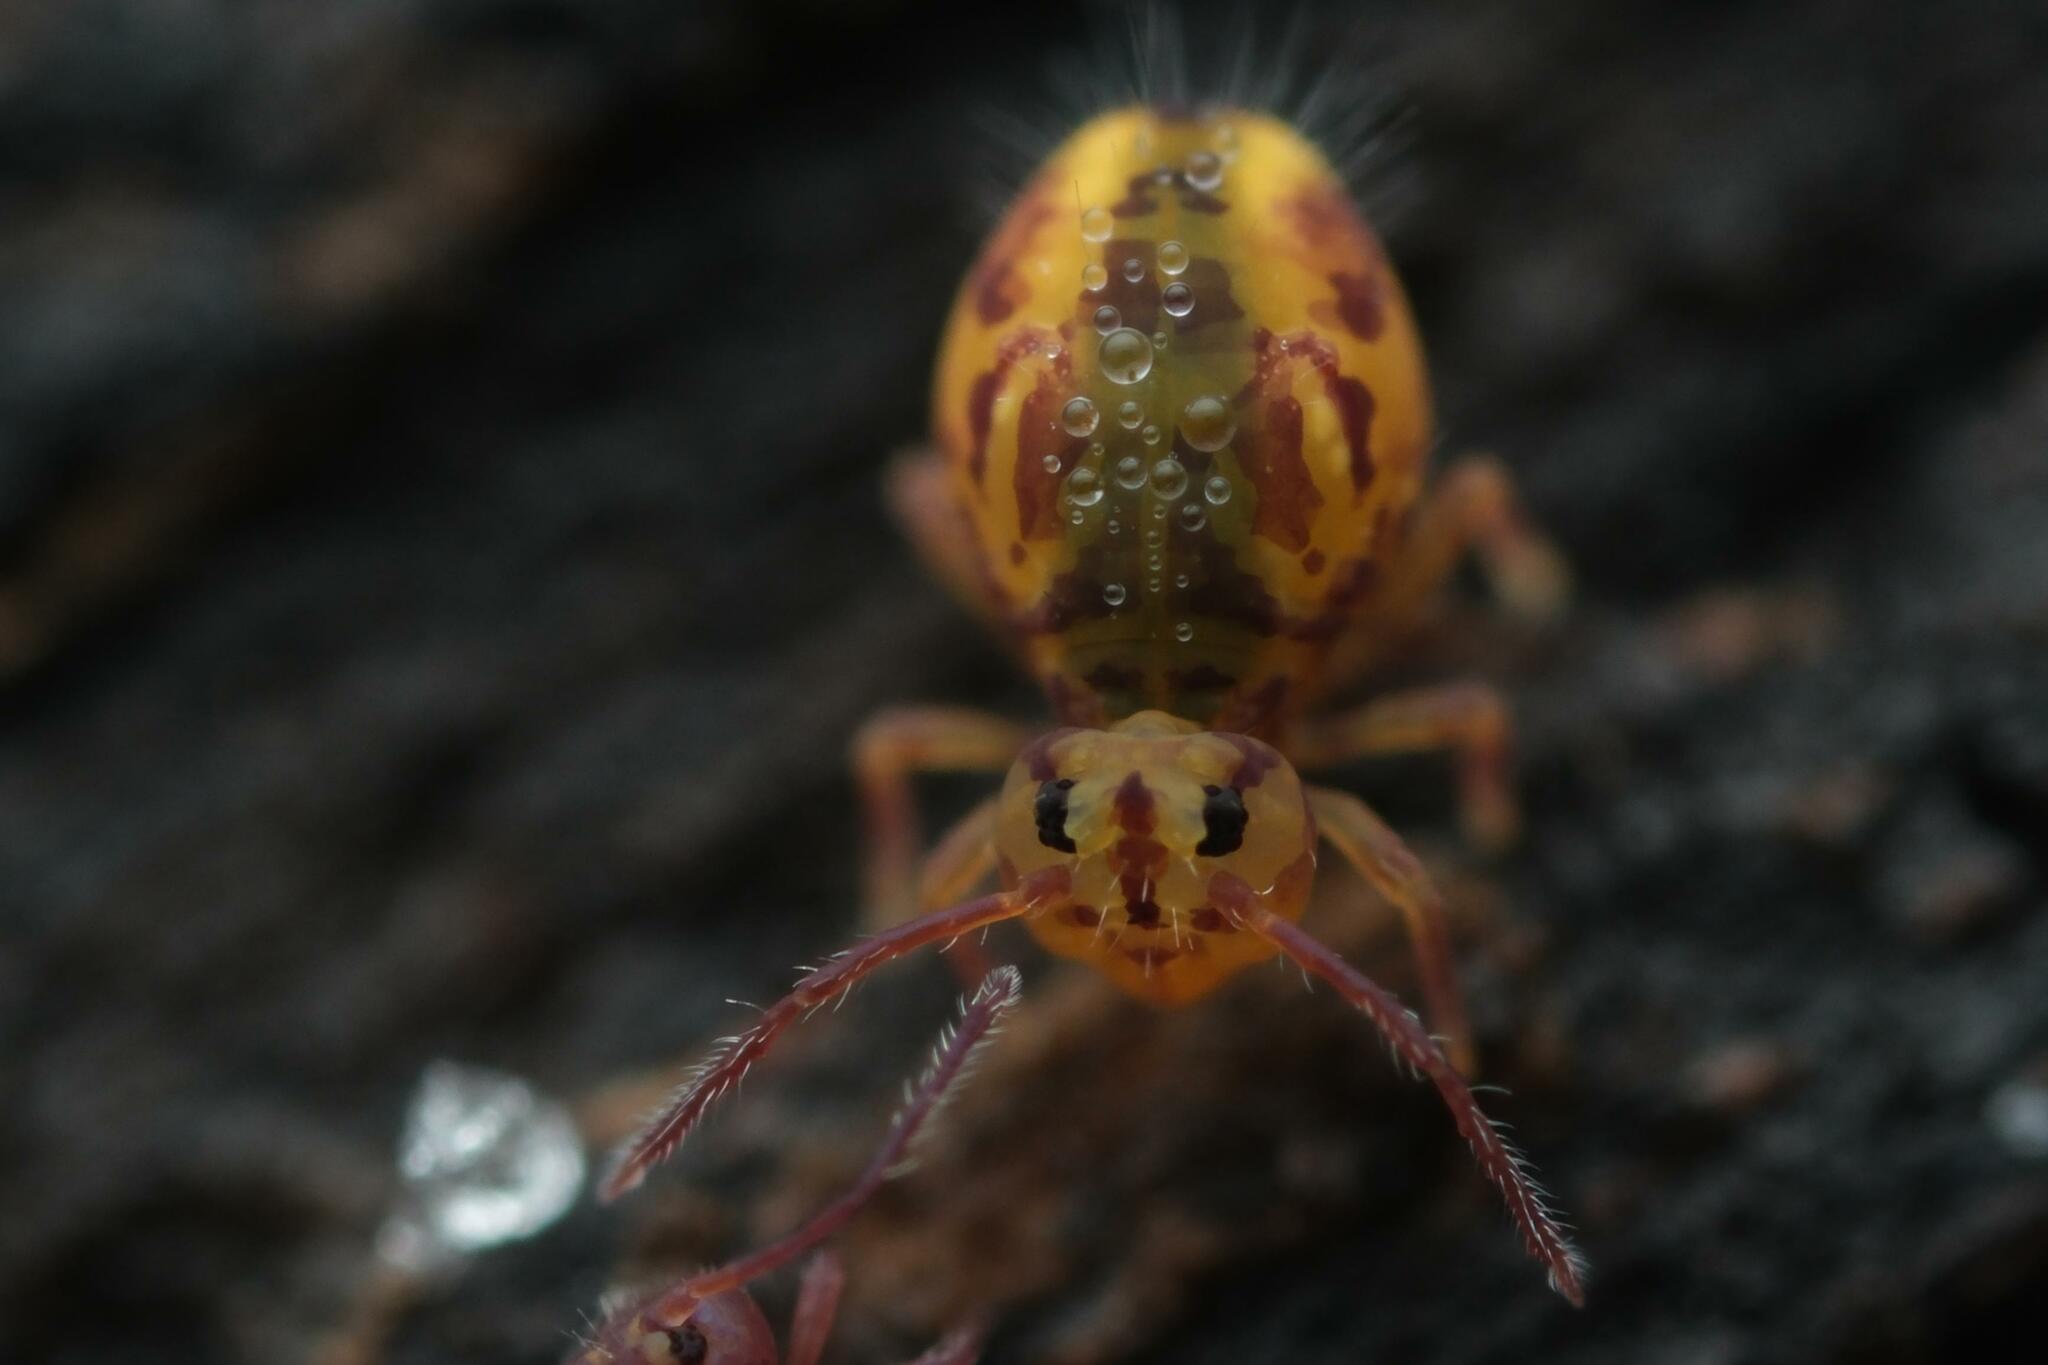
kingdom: Animalia
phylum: Arthropoda
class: Collembola
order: Symphypleona
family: Dicyrtomidae
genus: Dicyrtomina
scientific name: Dicyrtomina ornata
